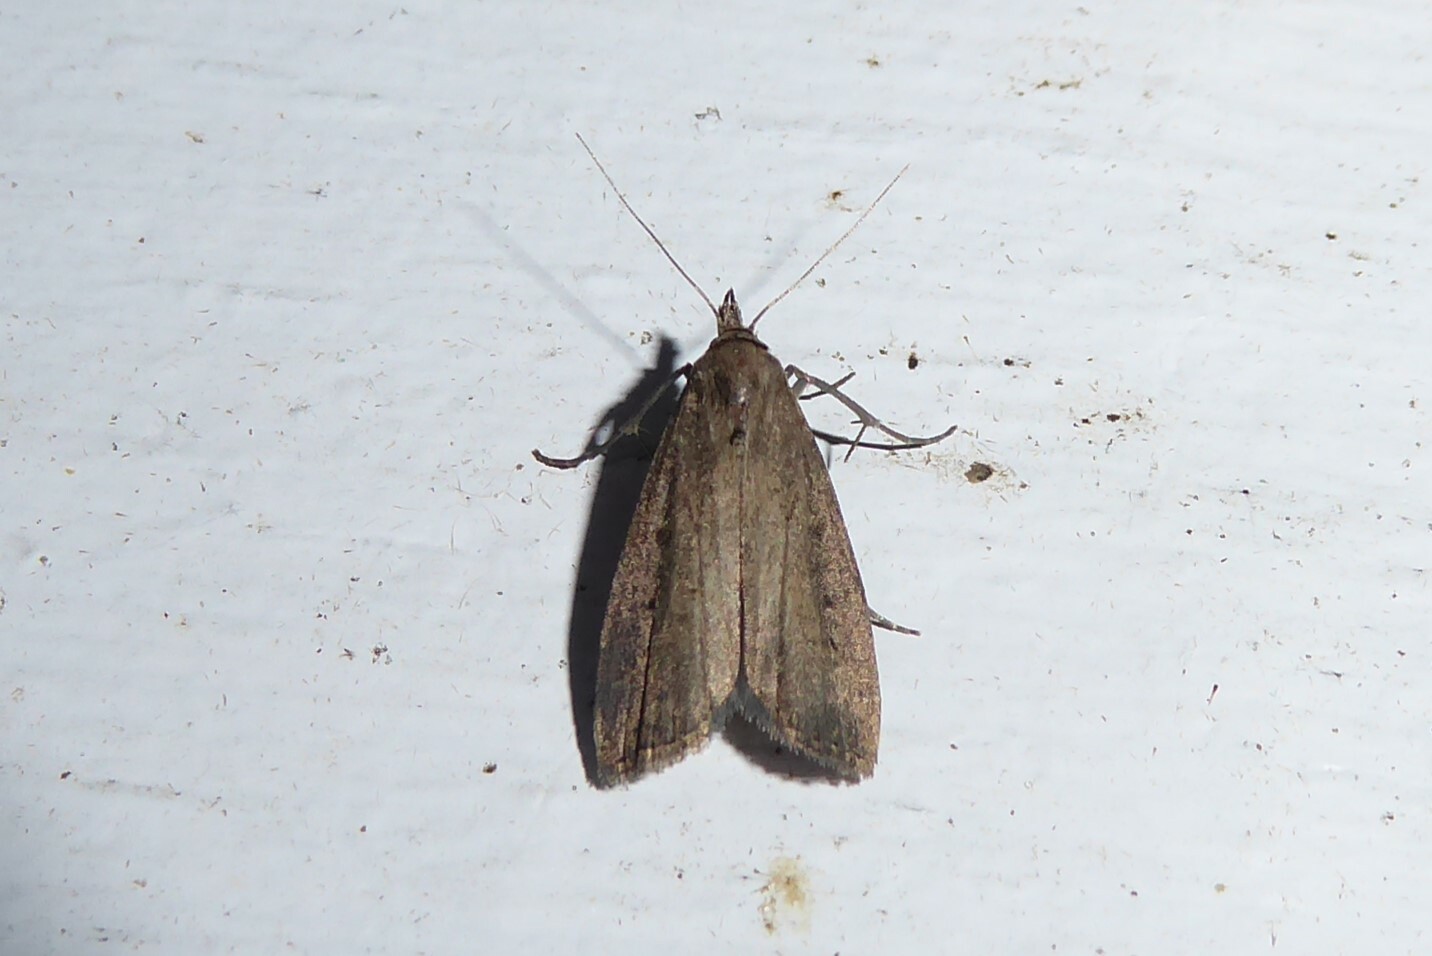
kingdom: Animalia
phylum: Arthropoda
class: Insecta
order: Lepidoptera
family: Erebidae
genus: Schrankia
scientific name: Schrankia costaestrigalis
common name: Pinion-streaked snout
